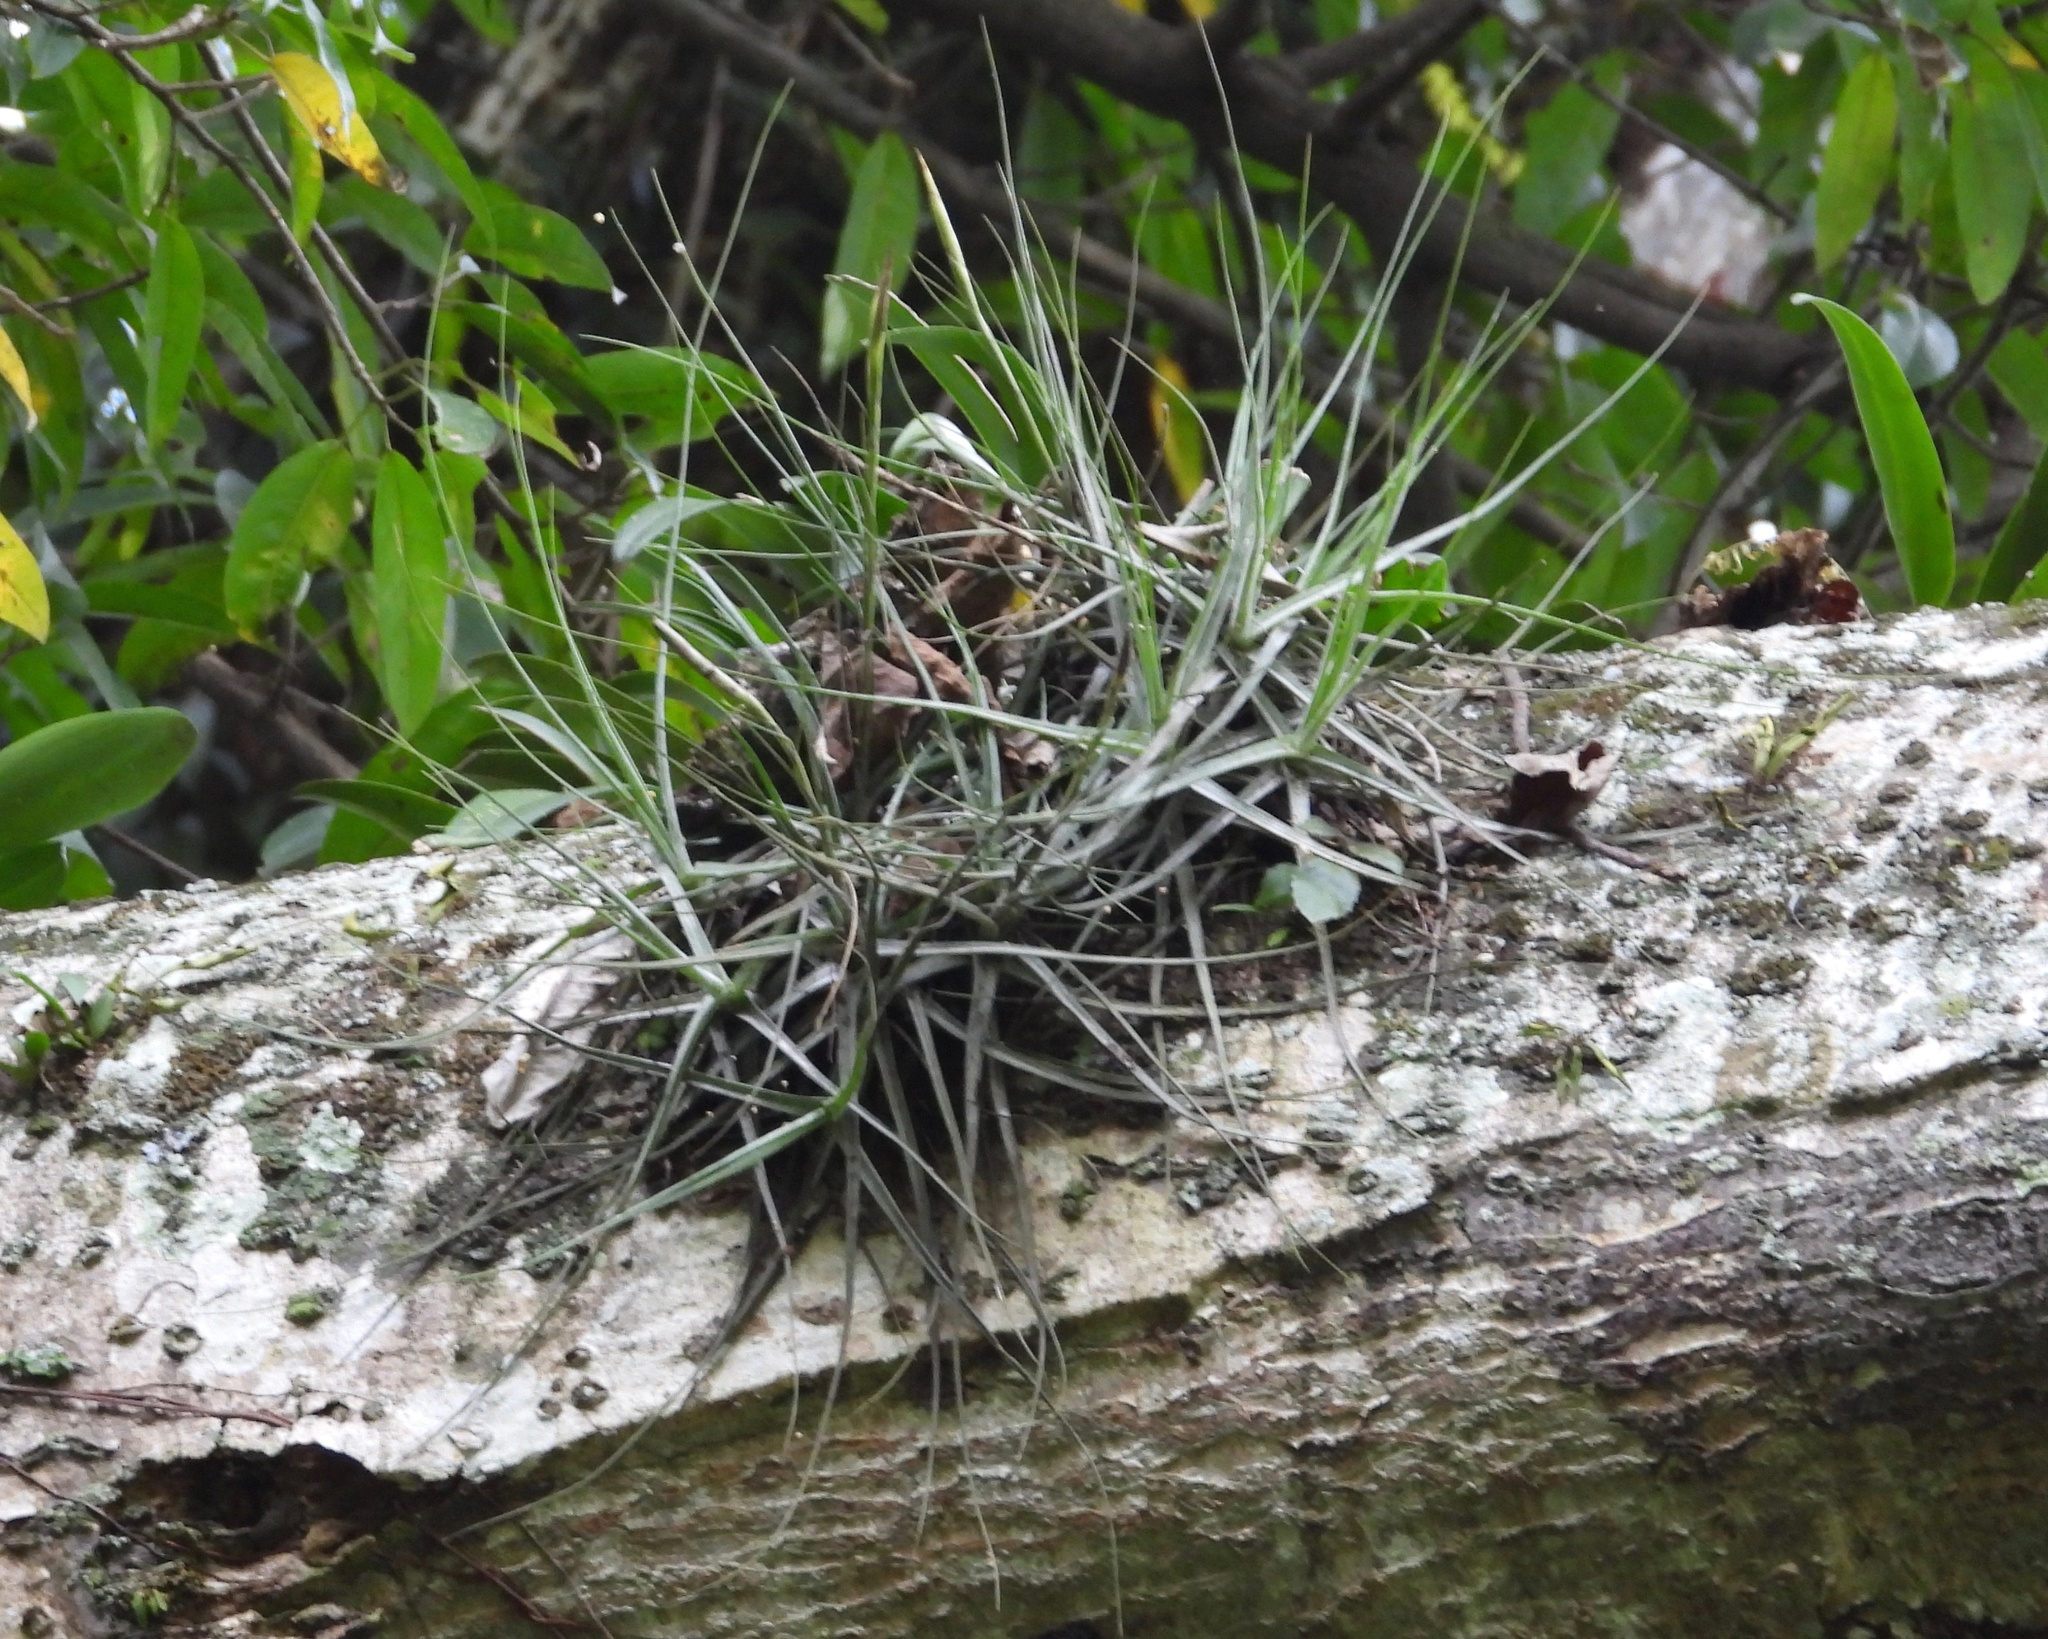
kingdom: Plantae
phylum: Tracheophyta
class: Liliopsida
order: Poales
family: Bromeliaceae
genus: Tillandsia
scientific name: Tillandsia schiedeana
